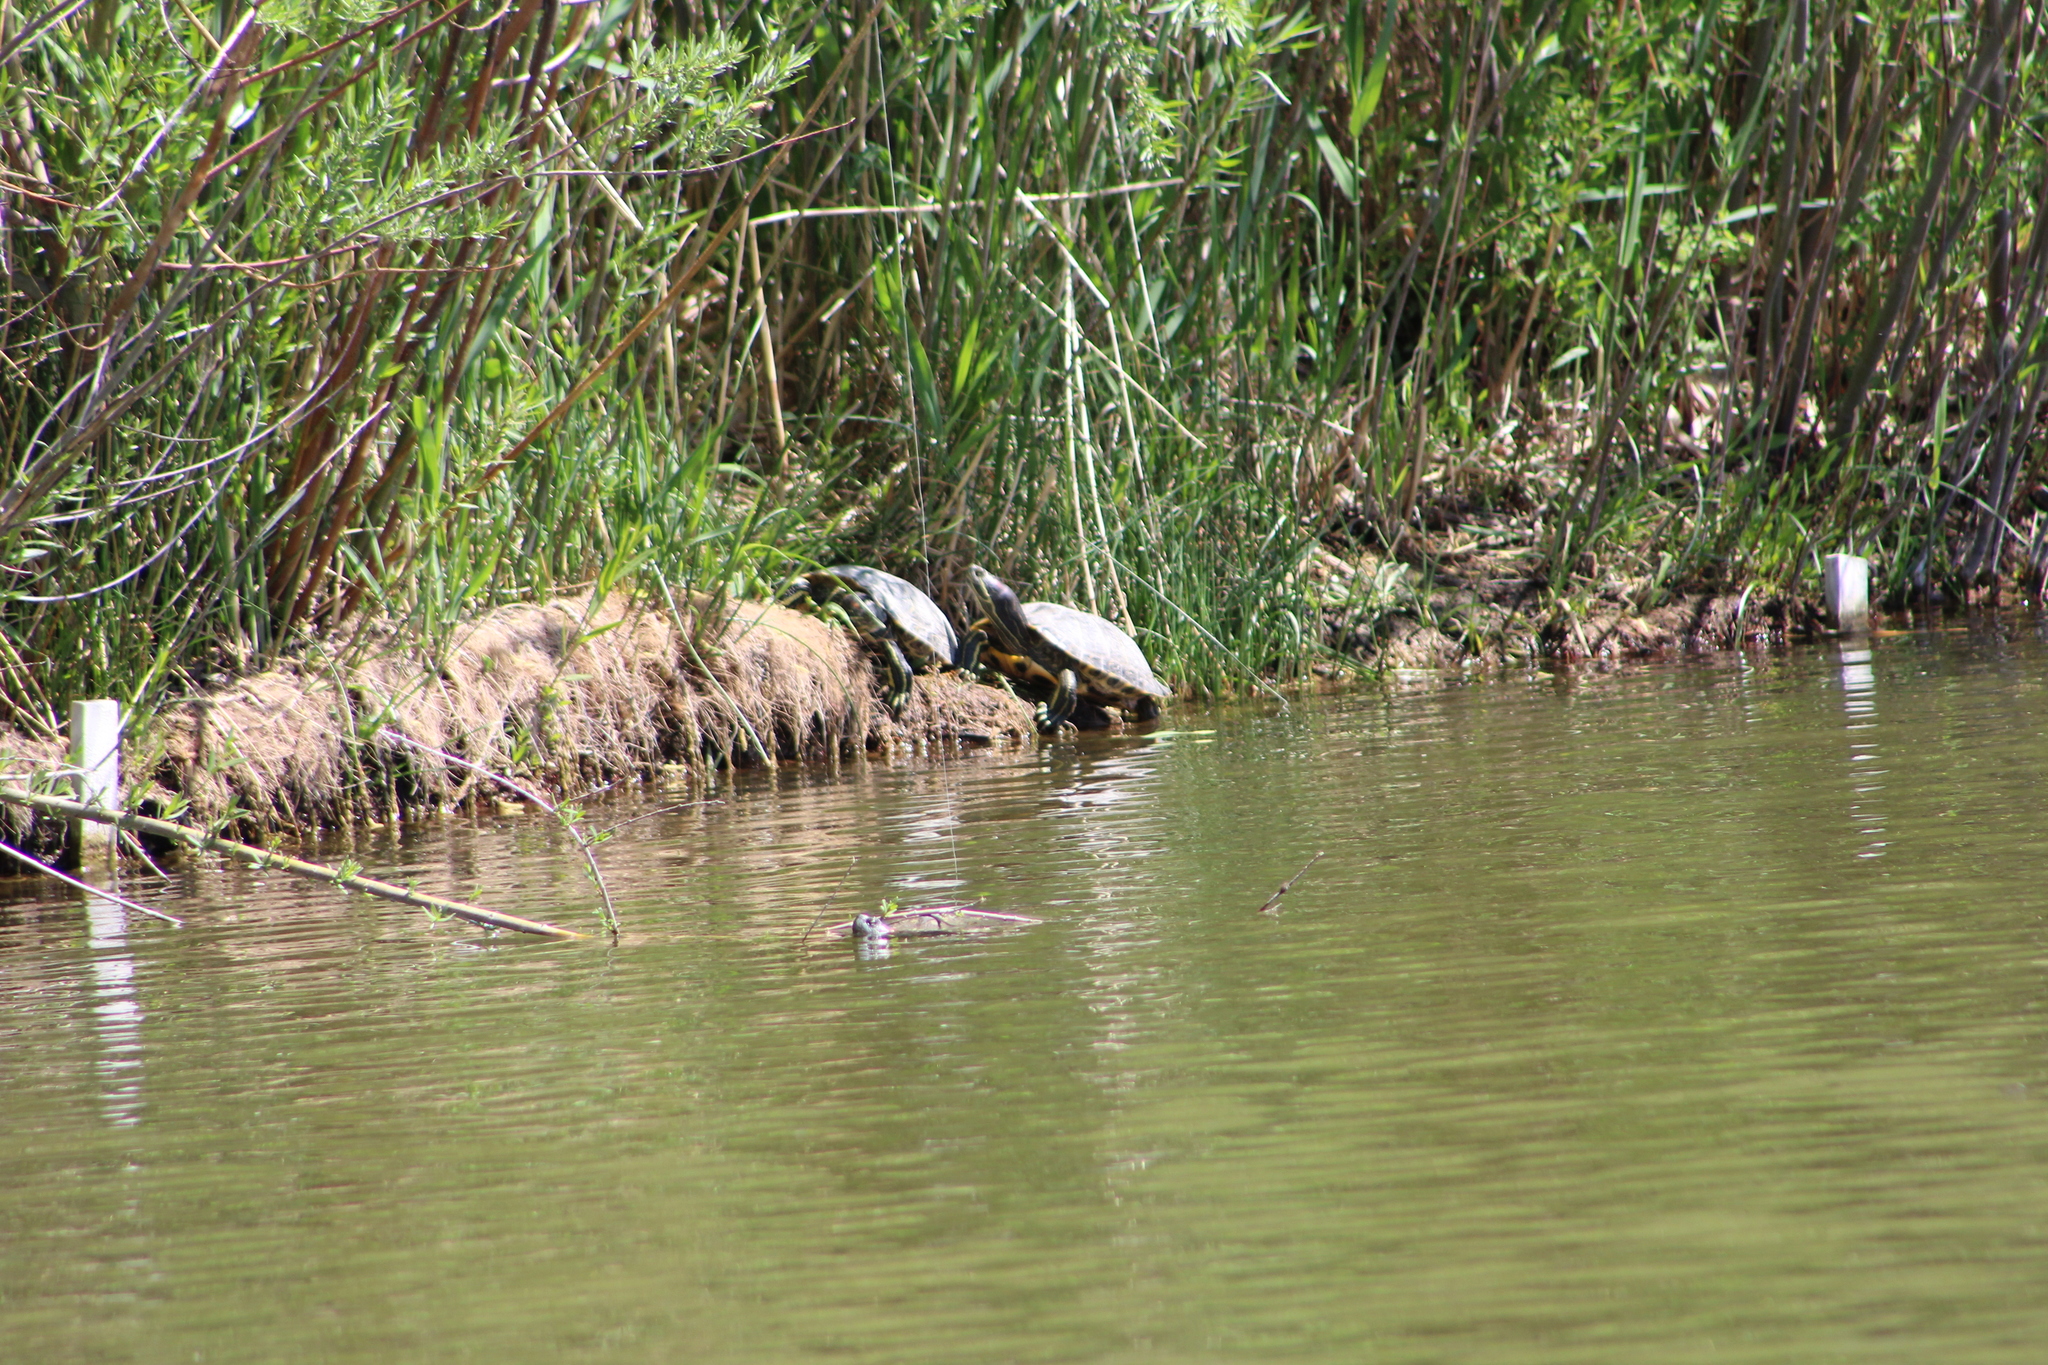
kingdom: Animalia
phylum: Chordata
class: Testudines
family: Emydidae
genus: Trachemys
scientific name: Trachemys scripta
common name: Slider
